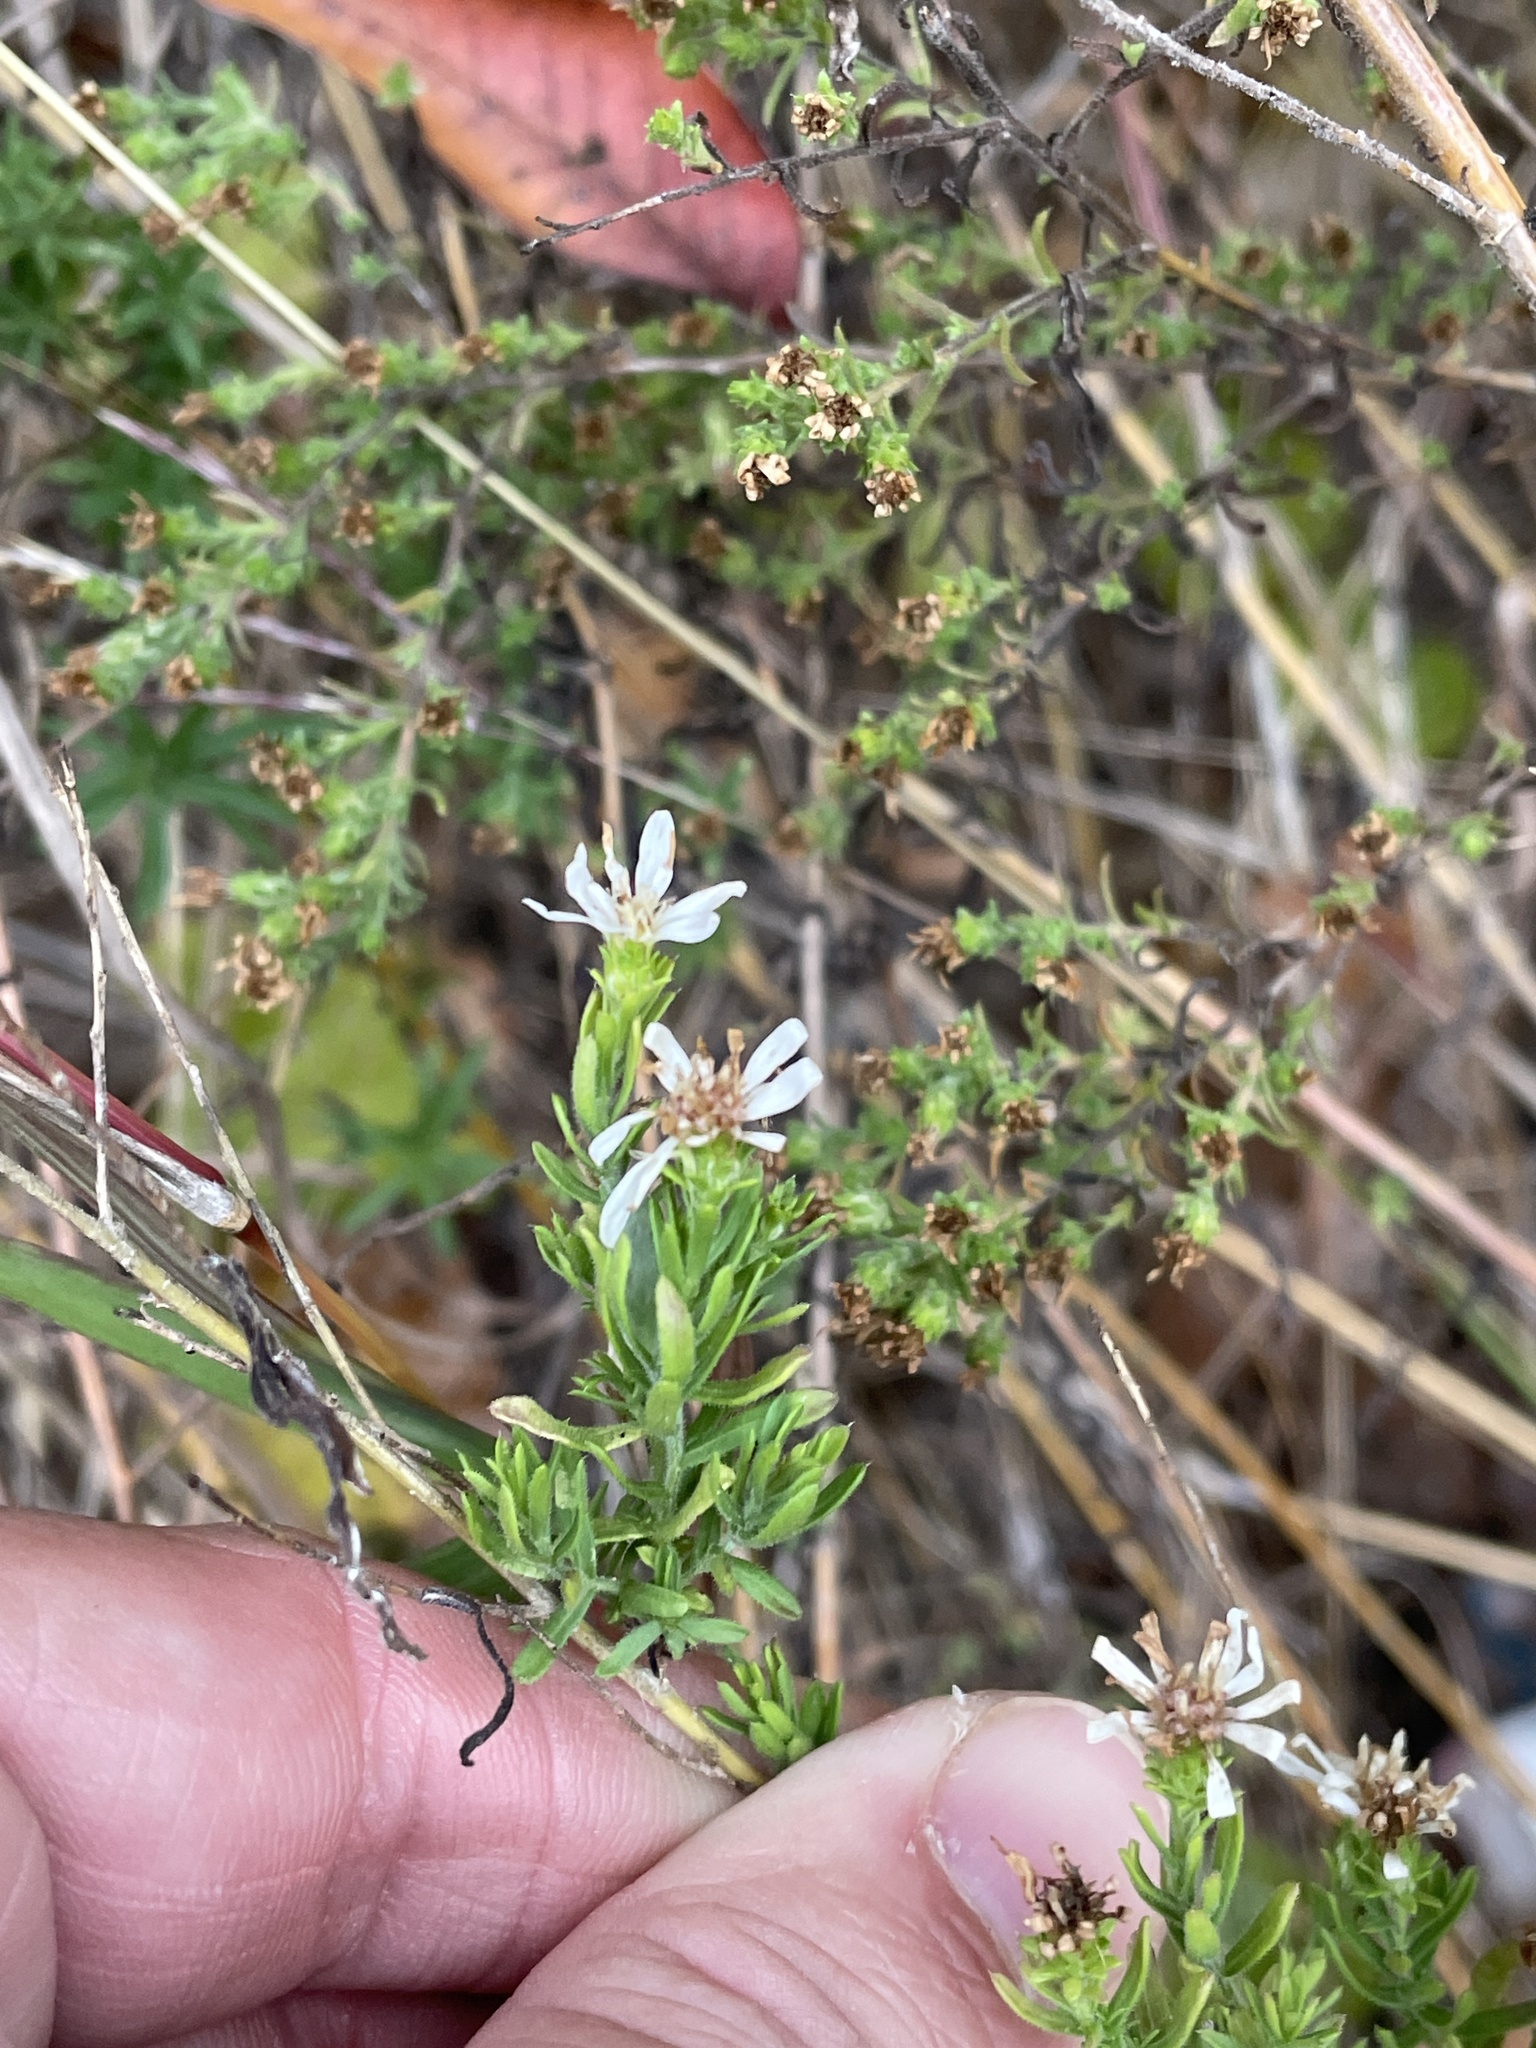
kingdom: Plantae
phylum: Tracheophyta
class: Magnoliopsida
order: Asterales
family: Asteraceae
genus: Symphyotrichum
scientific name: Symphyotrichum ericoides
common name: Heath aster
